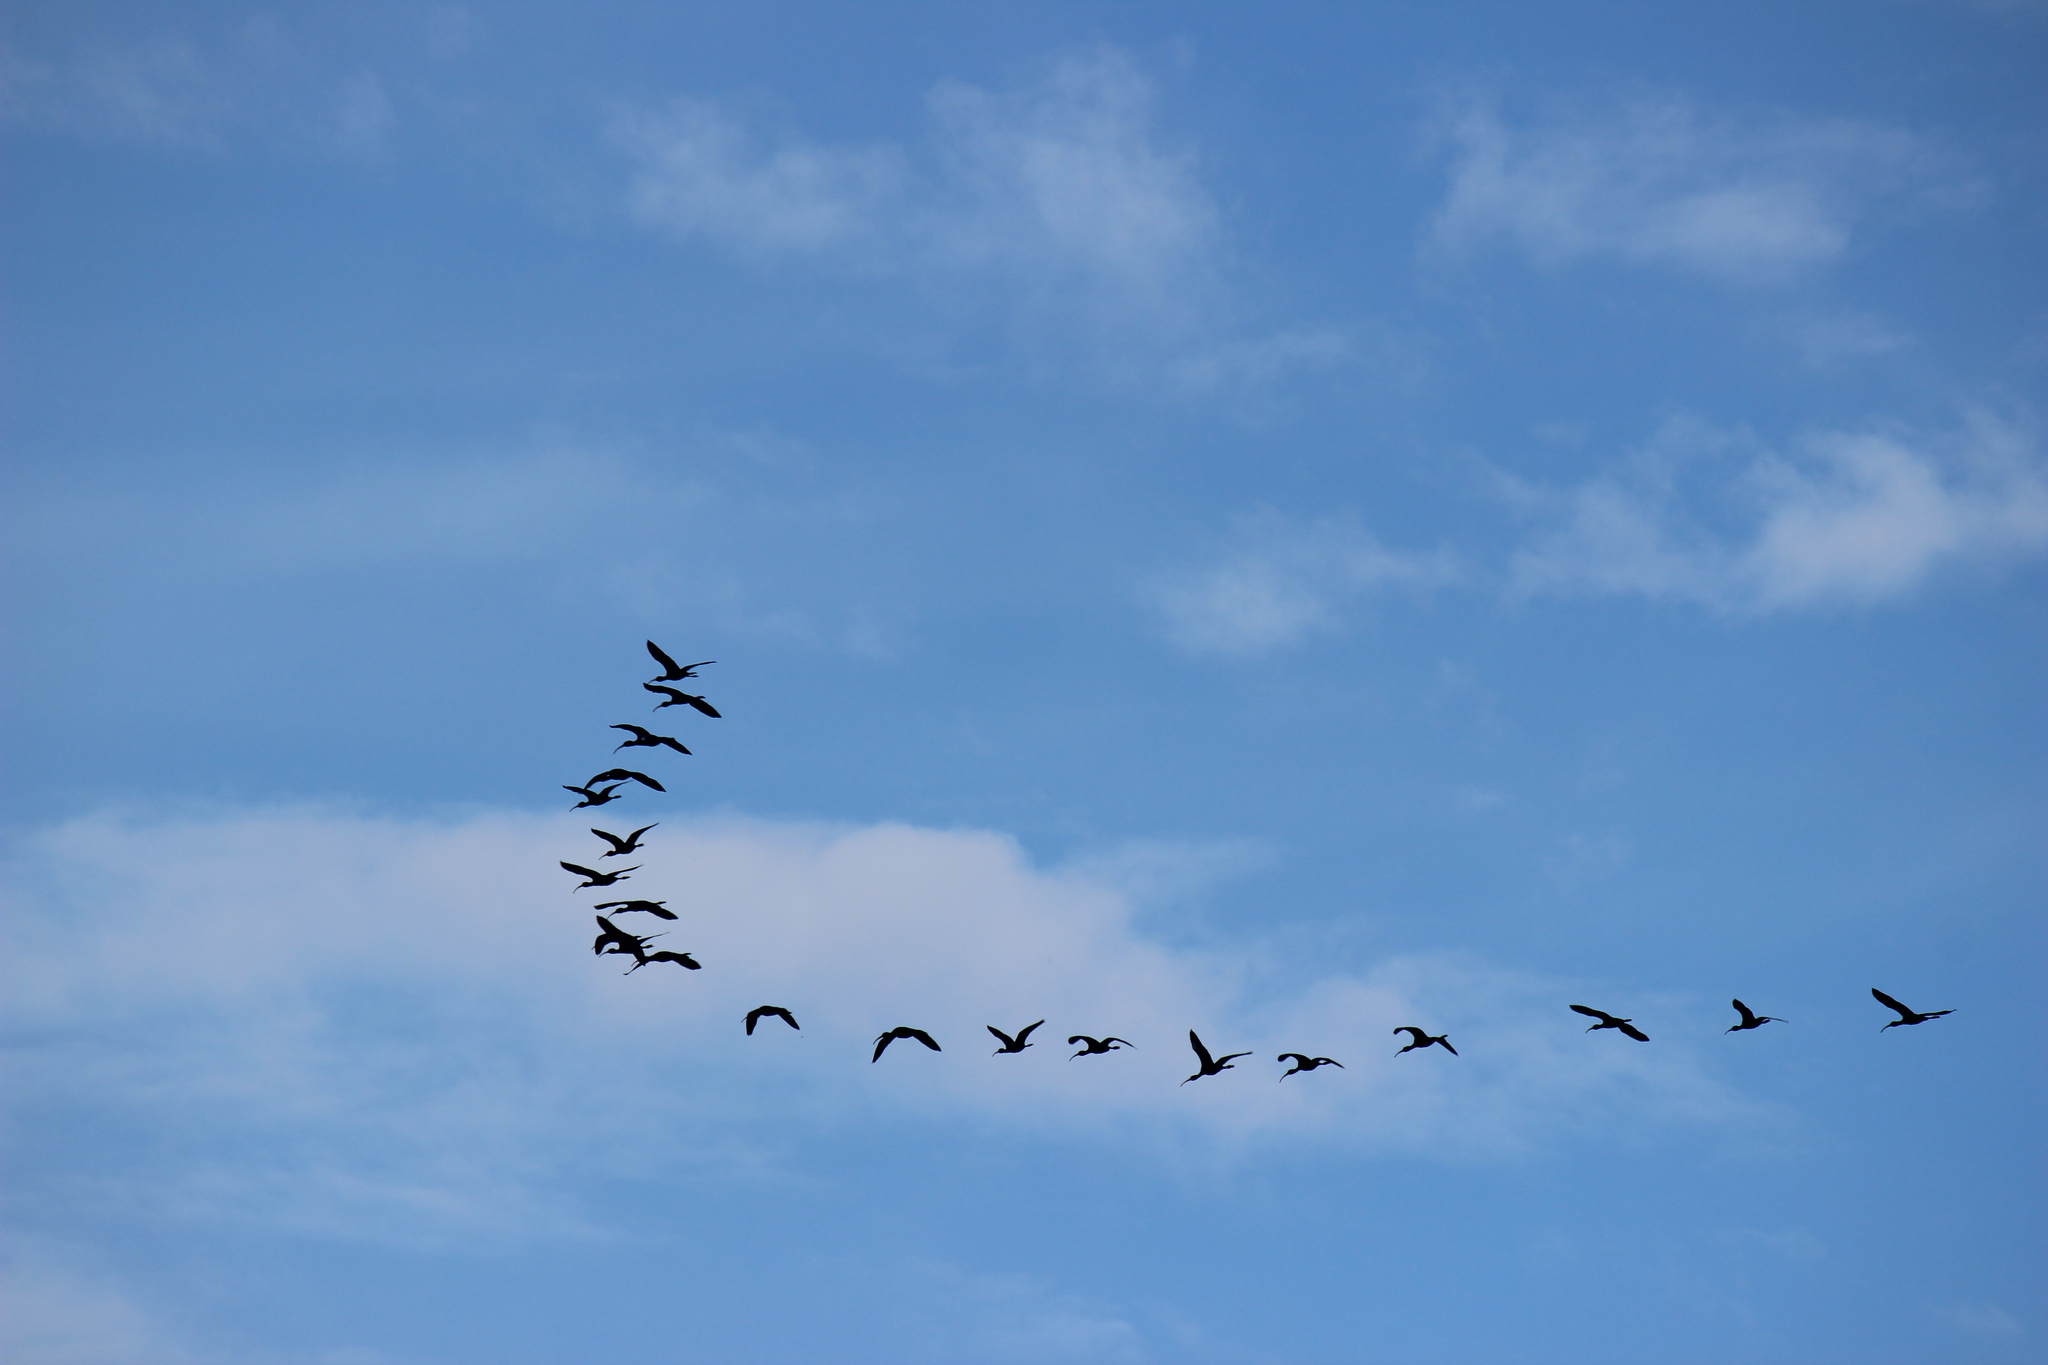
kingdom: Animalia
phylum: Chordata
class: Aves
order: Pelecaniformes
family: Threskiornithidae
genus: Plegadis
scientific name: Plegadis chihi
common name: White-faced ibis
